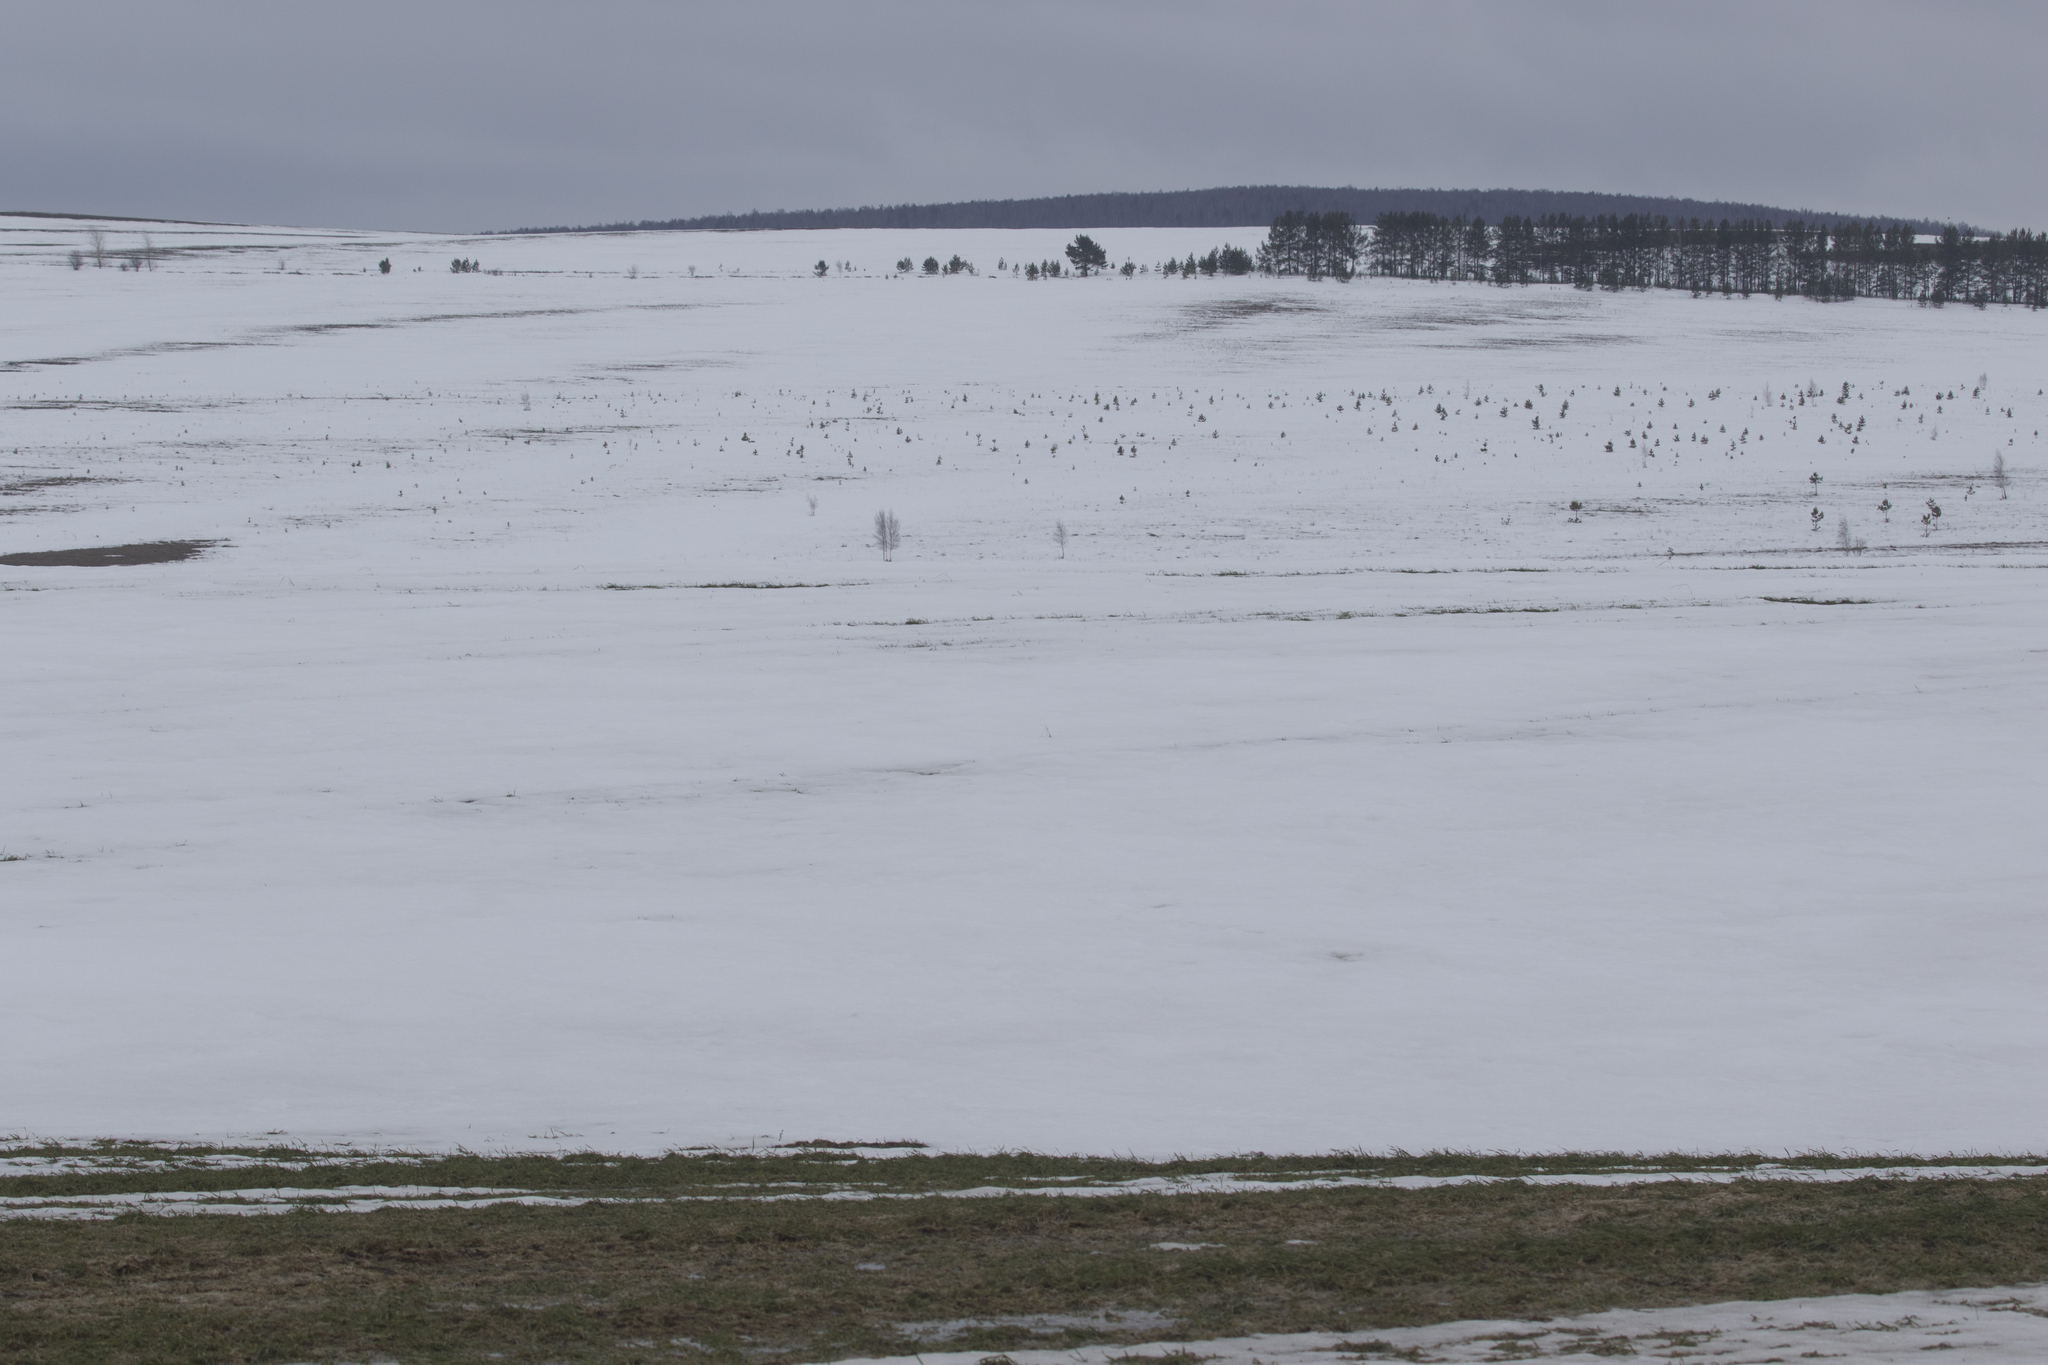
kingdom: Plantae
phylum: Tracheophyta
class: Pinopsida
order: Pinales
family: Pinaceae
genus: Pinus
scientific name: Pinus sylvestris
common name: Scots pine
